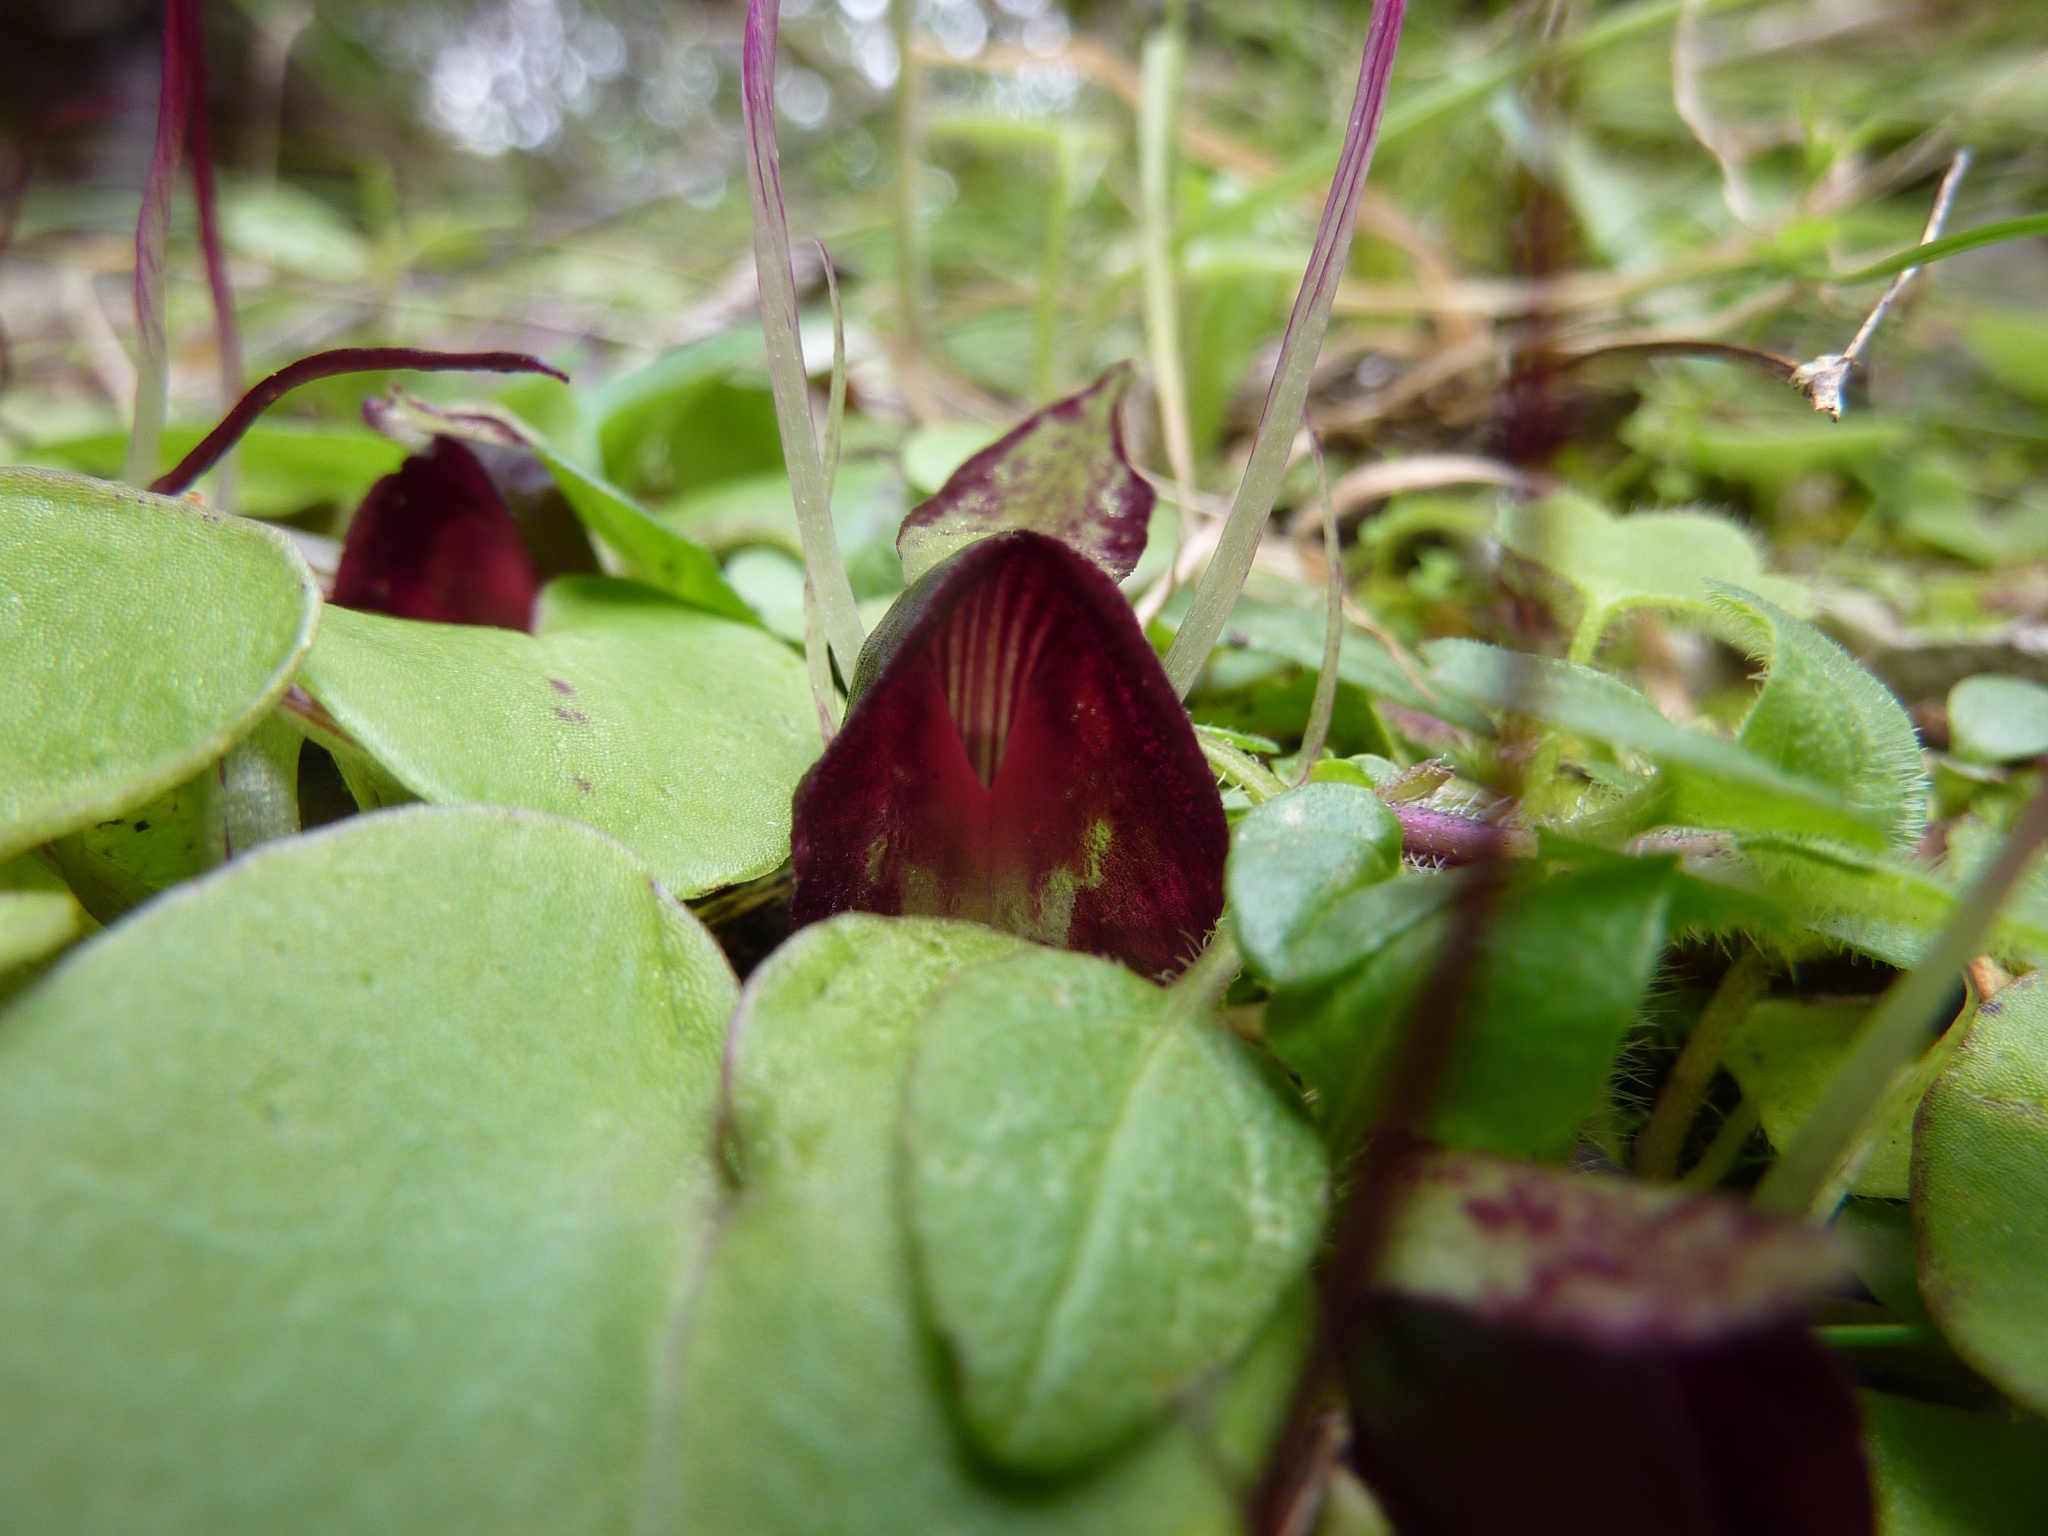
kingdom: Plantae
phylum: Tracheophyta
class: Liliopsida
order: Asparagales
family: Orchidaceae
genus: Corybas
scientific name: Corybas macranthus
